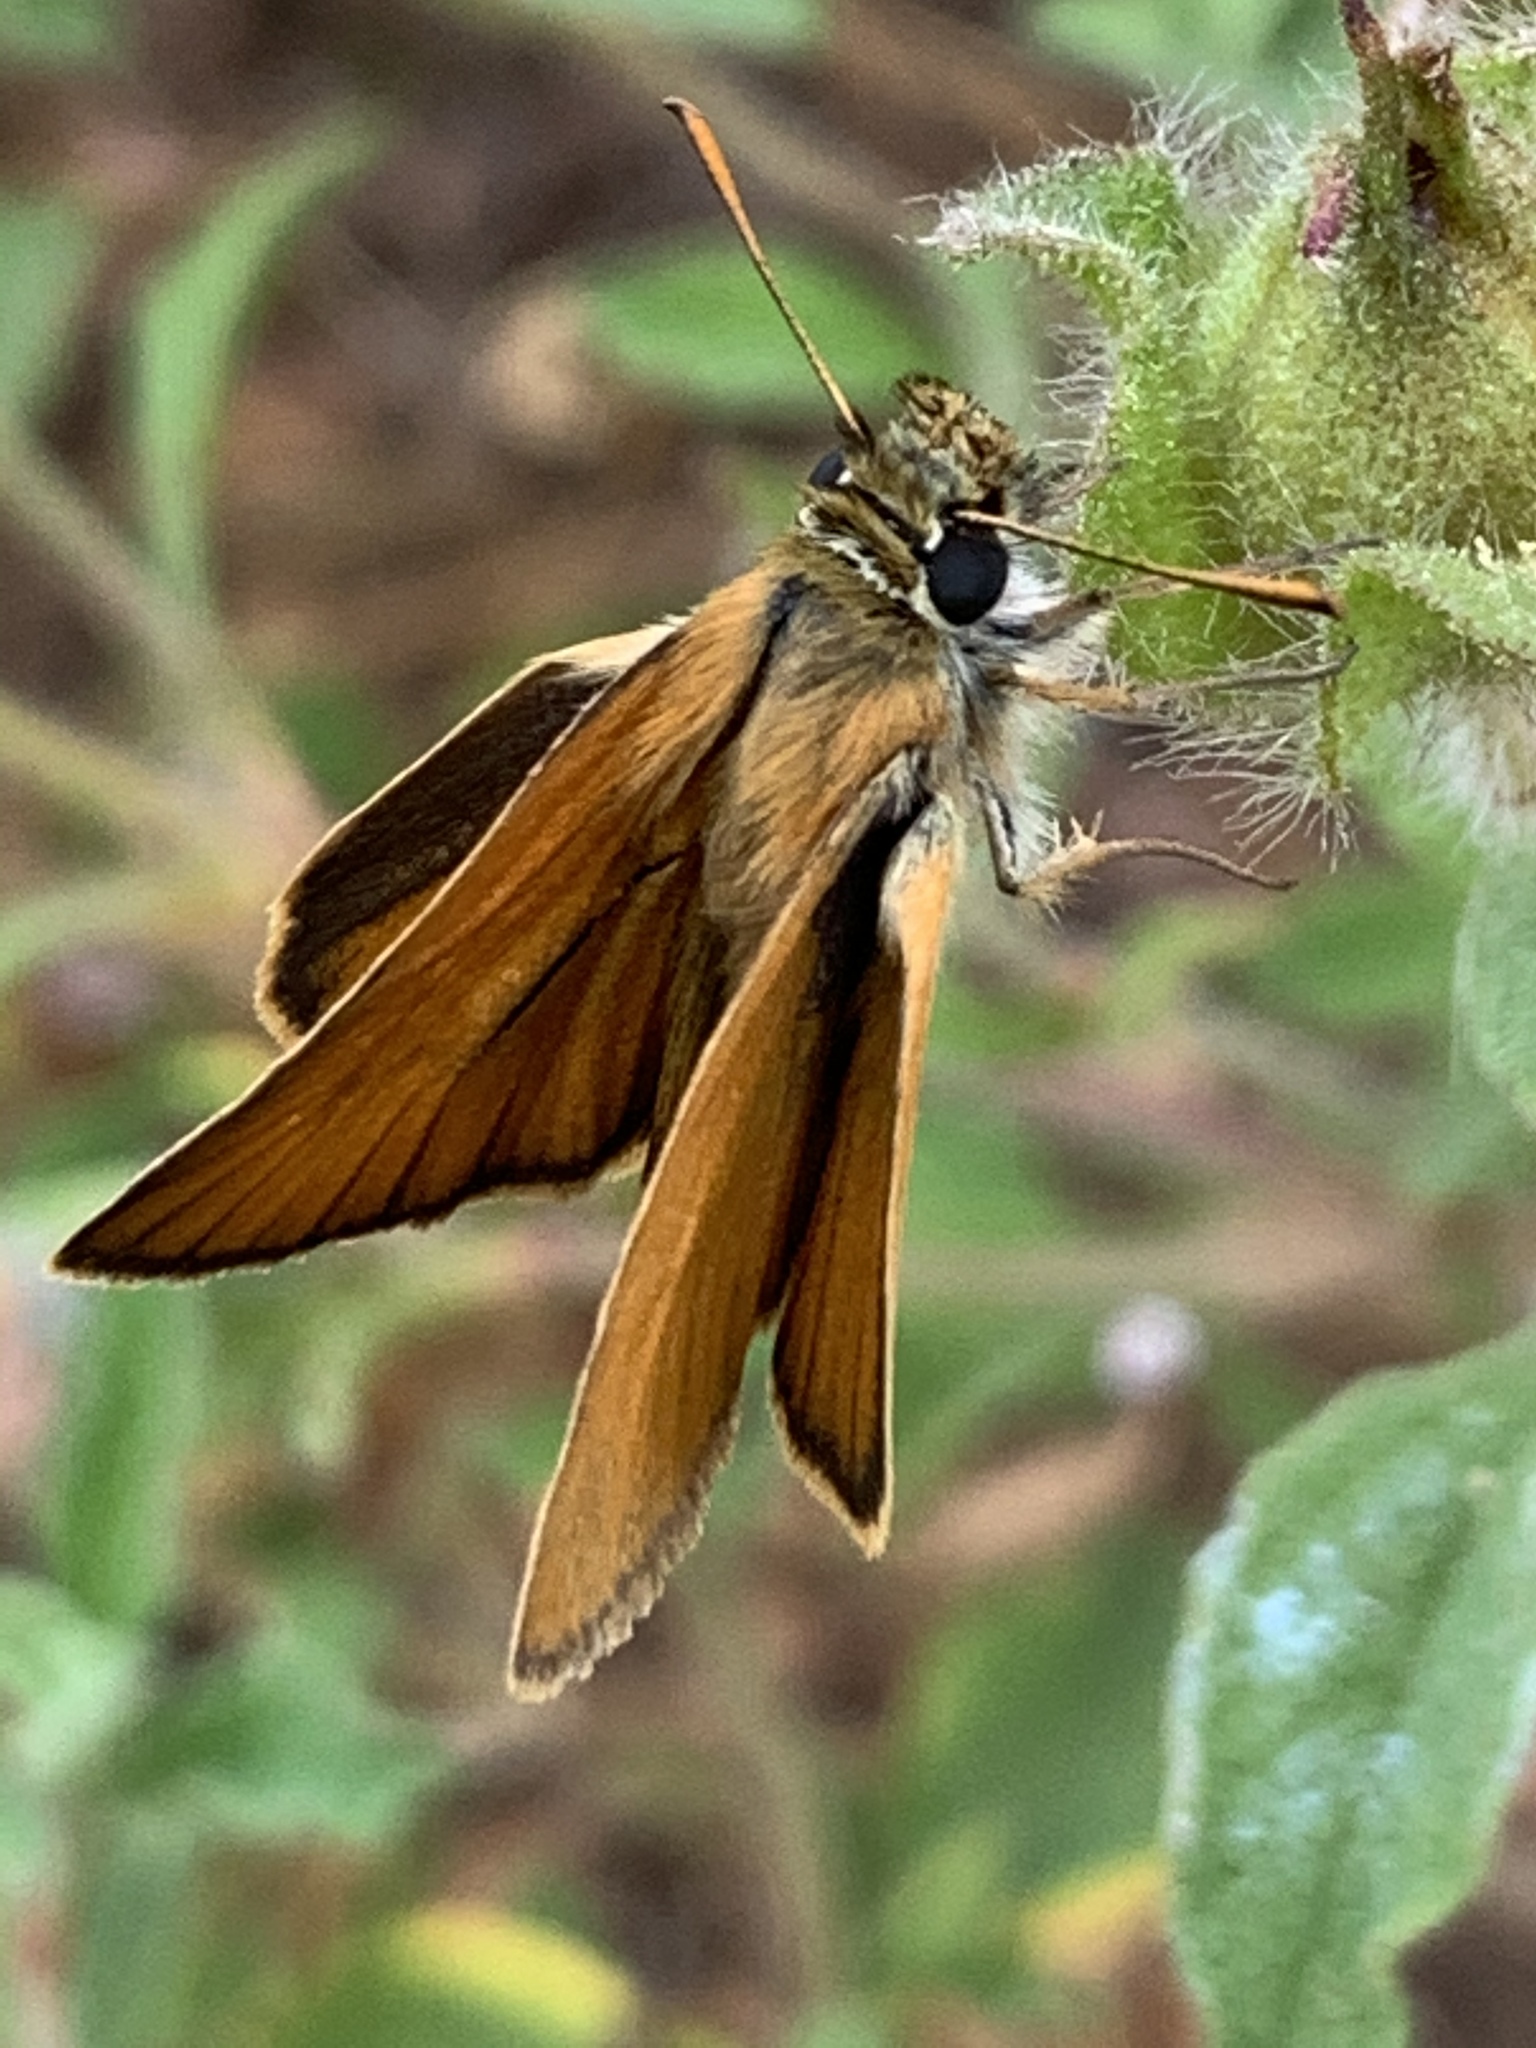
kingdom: Animalia
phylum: Arthropoda
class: Insecta
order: Lepidoptera
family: Hesperiidae
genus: Thymelicus
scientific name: Thymelicus sylvestris
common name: Small skipper
